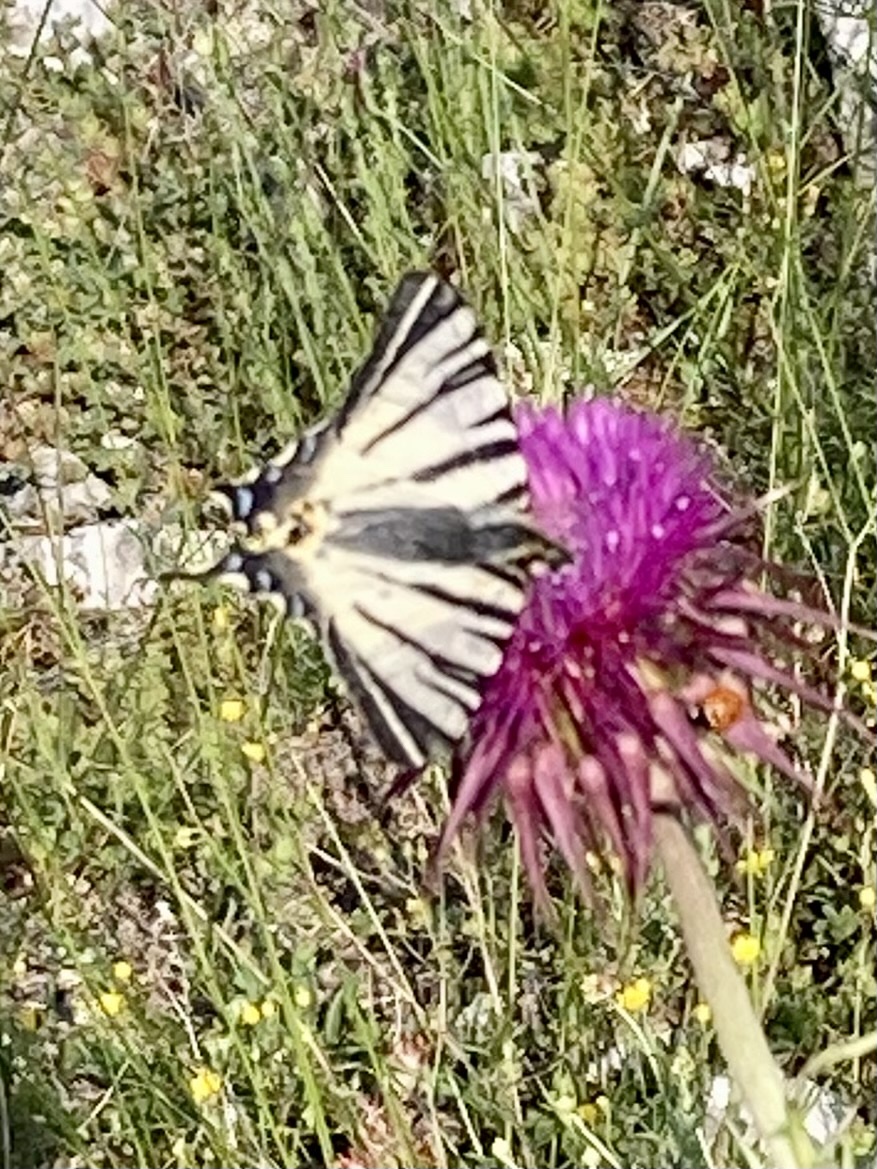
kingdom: Animalia
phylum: Arthropoda
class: Insecta
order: Lepidoptera
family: Papilionidae
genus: Iphiclides
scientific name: Iphiclides podalirius
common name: Scarce swallowtail
